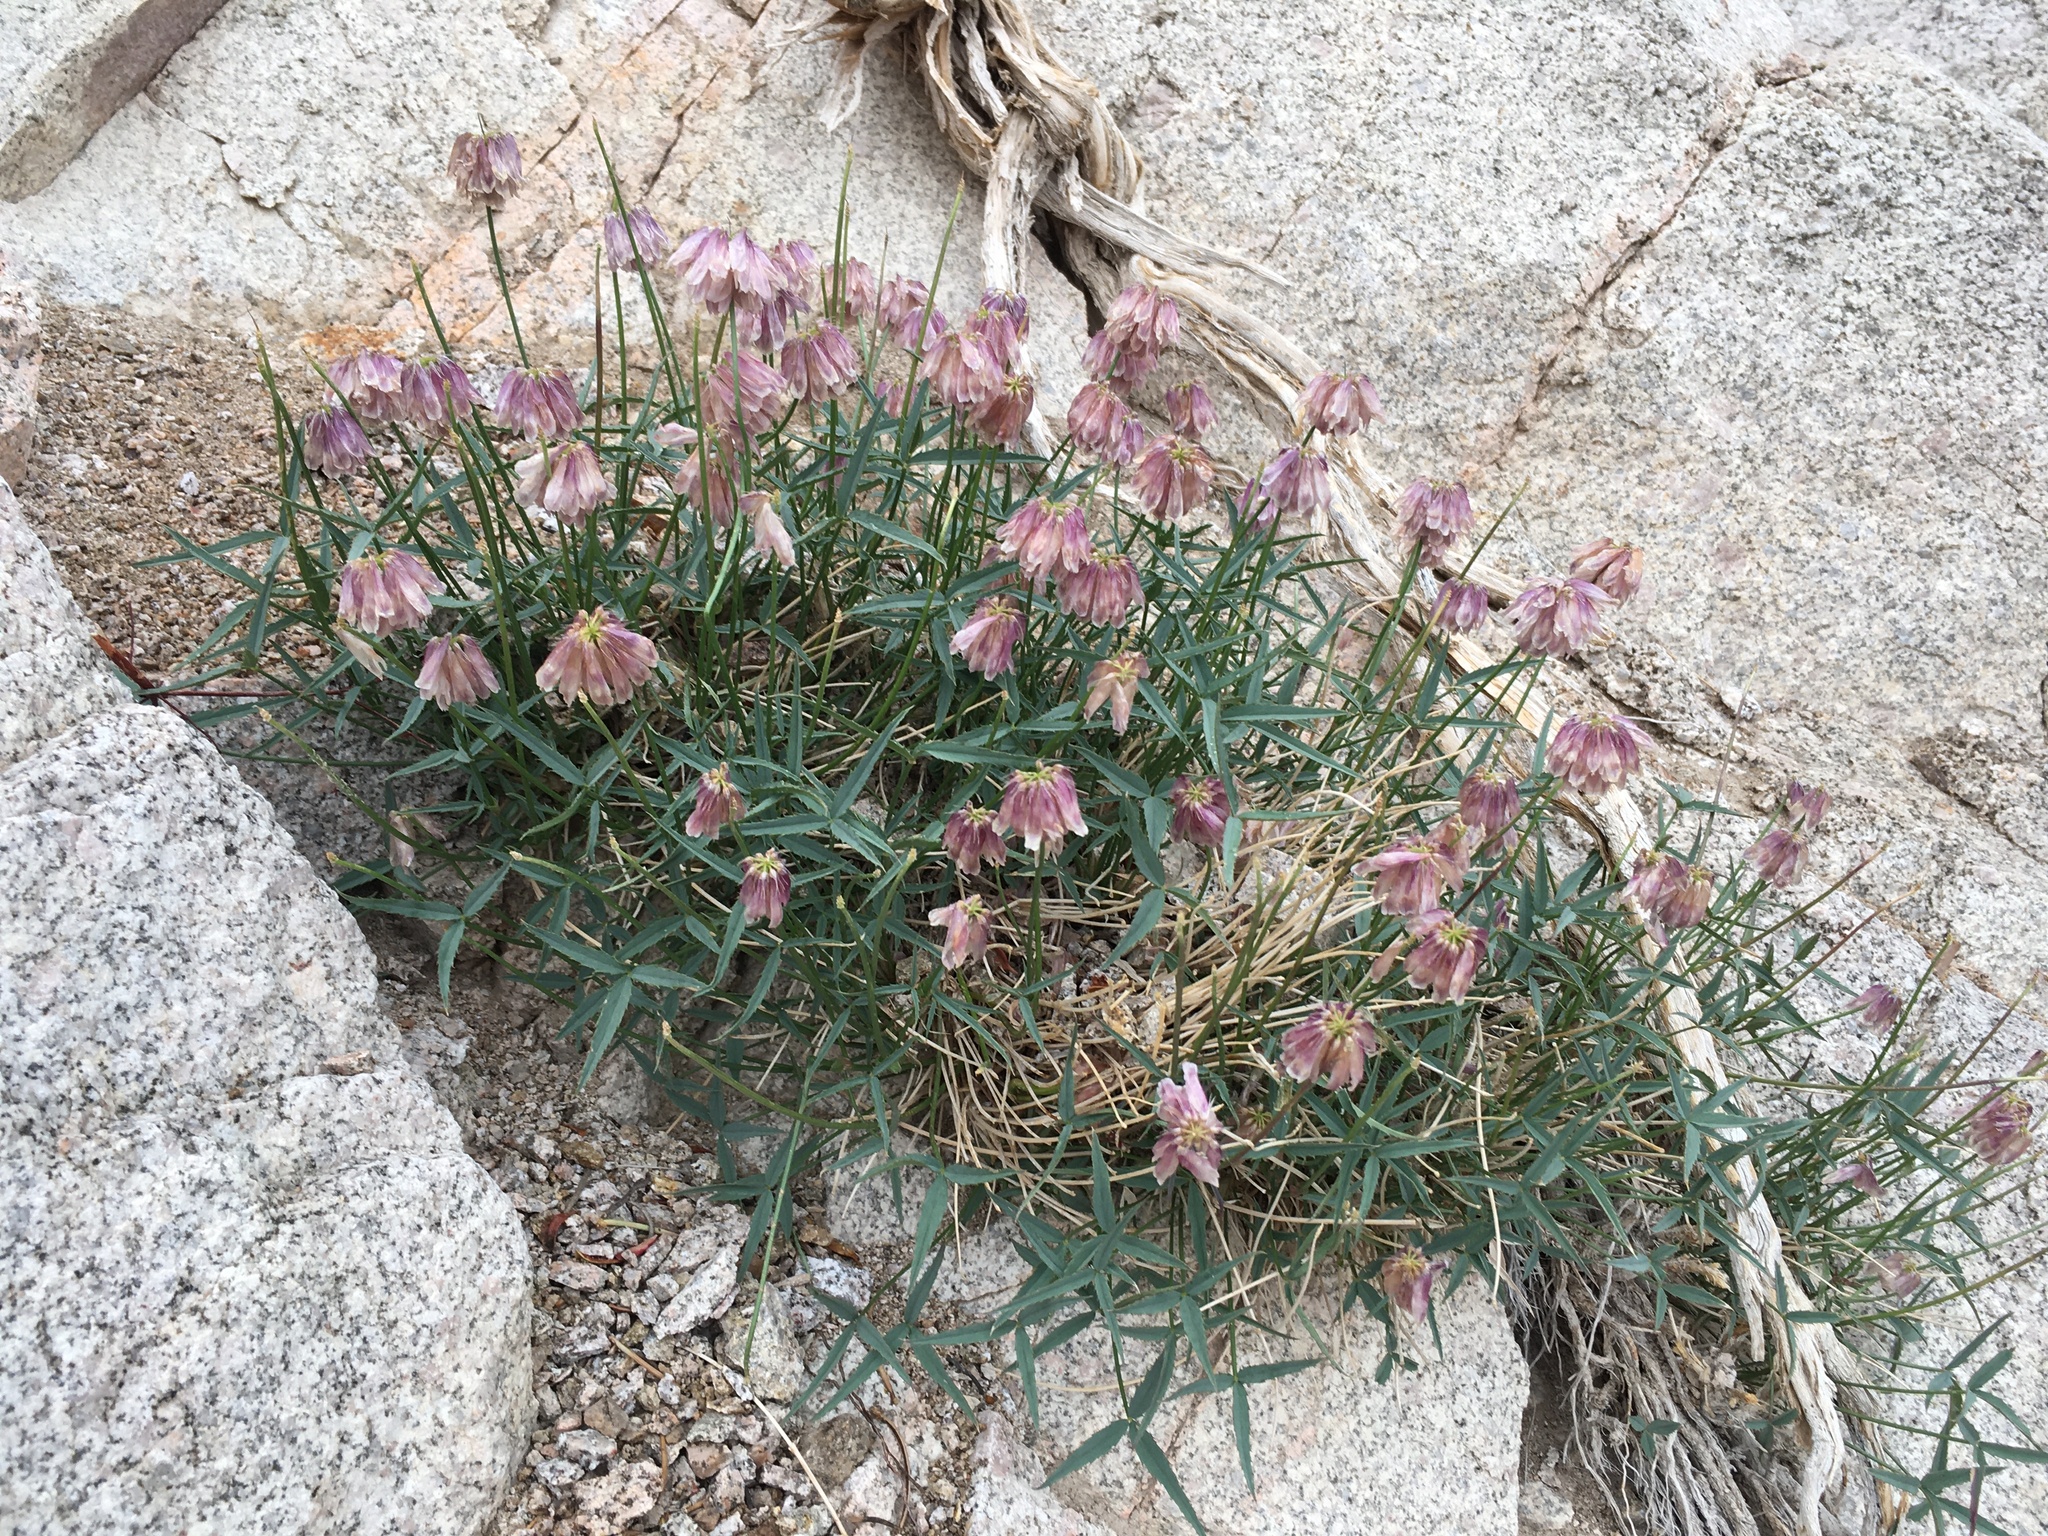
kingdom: Plantae
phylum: Tracheophyta
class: Magnoliopsida
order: Fabales
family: Fabaceae
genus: Trifolium
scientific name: Trifolium dedeckerae
